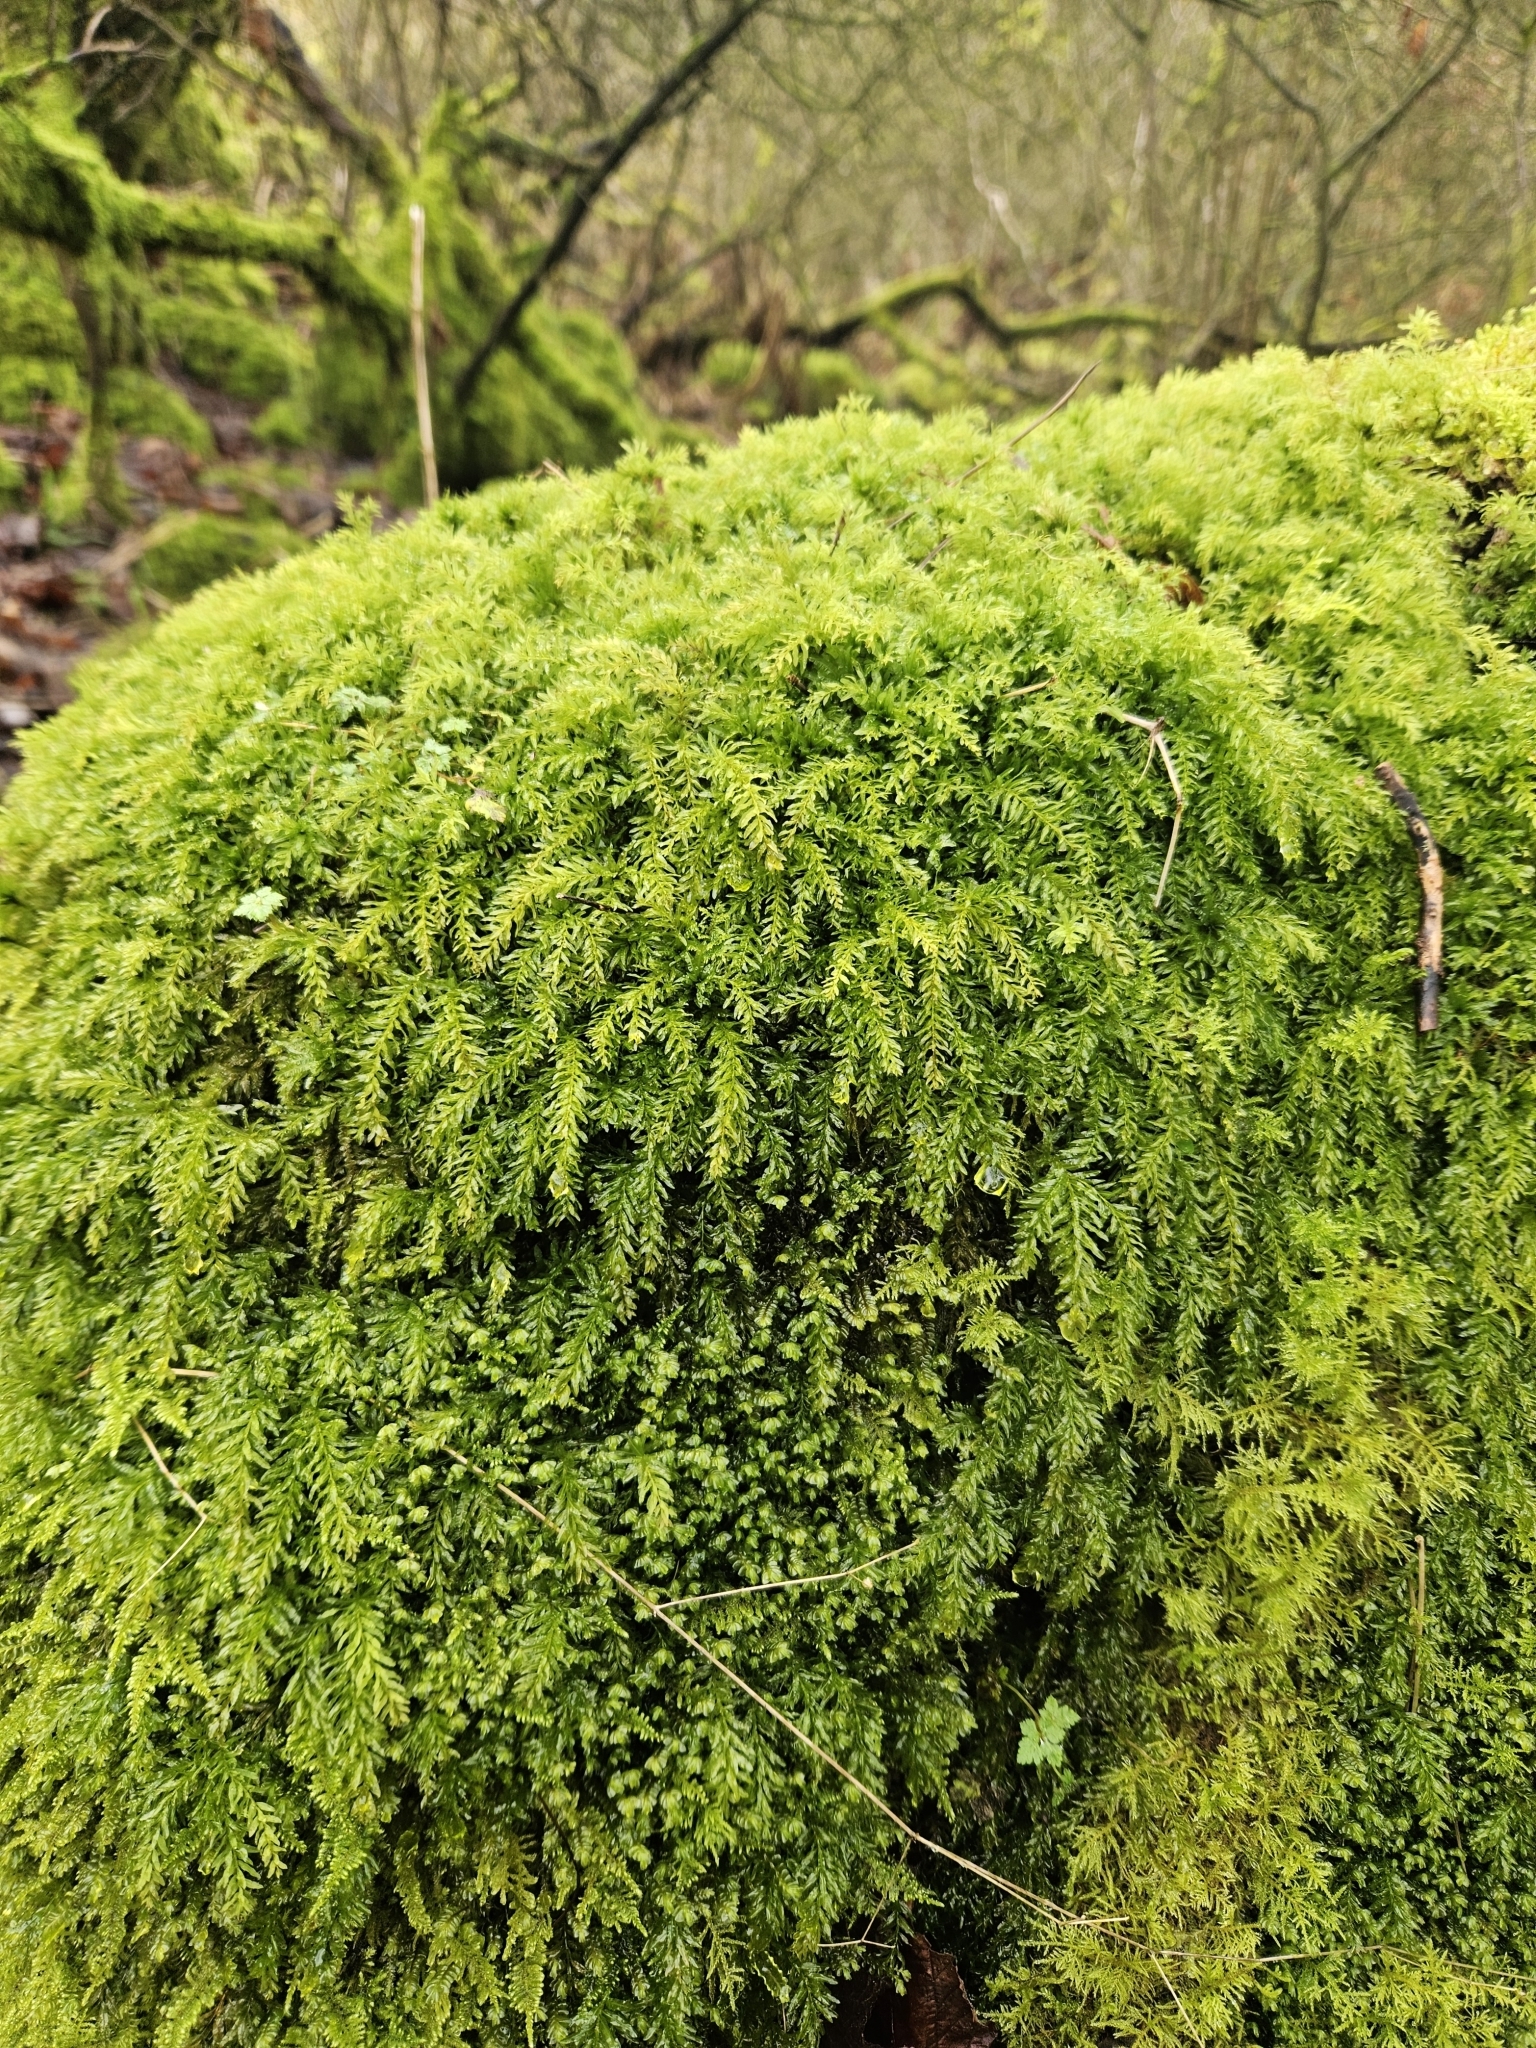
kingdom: Plantae
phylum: Bryophyta
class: Bryopsida
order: Bryales
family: Mniaceae
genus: Plagiomnium
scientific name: Plagiomnium undulatum
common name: Hart's-tongue thyme-moss
